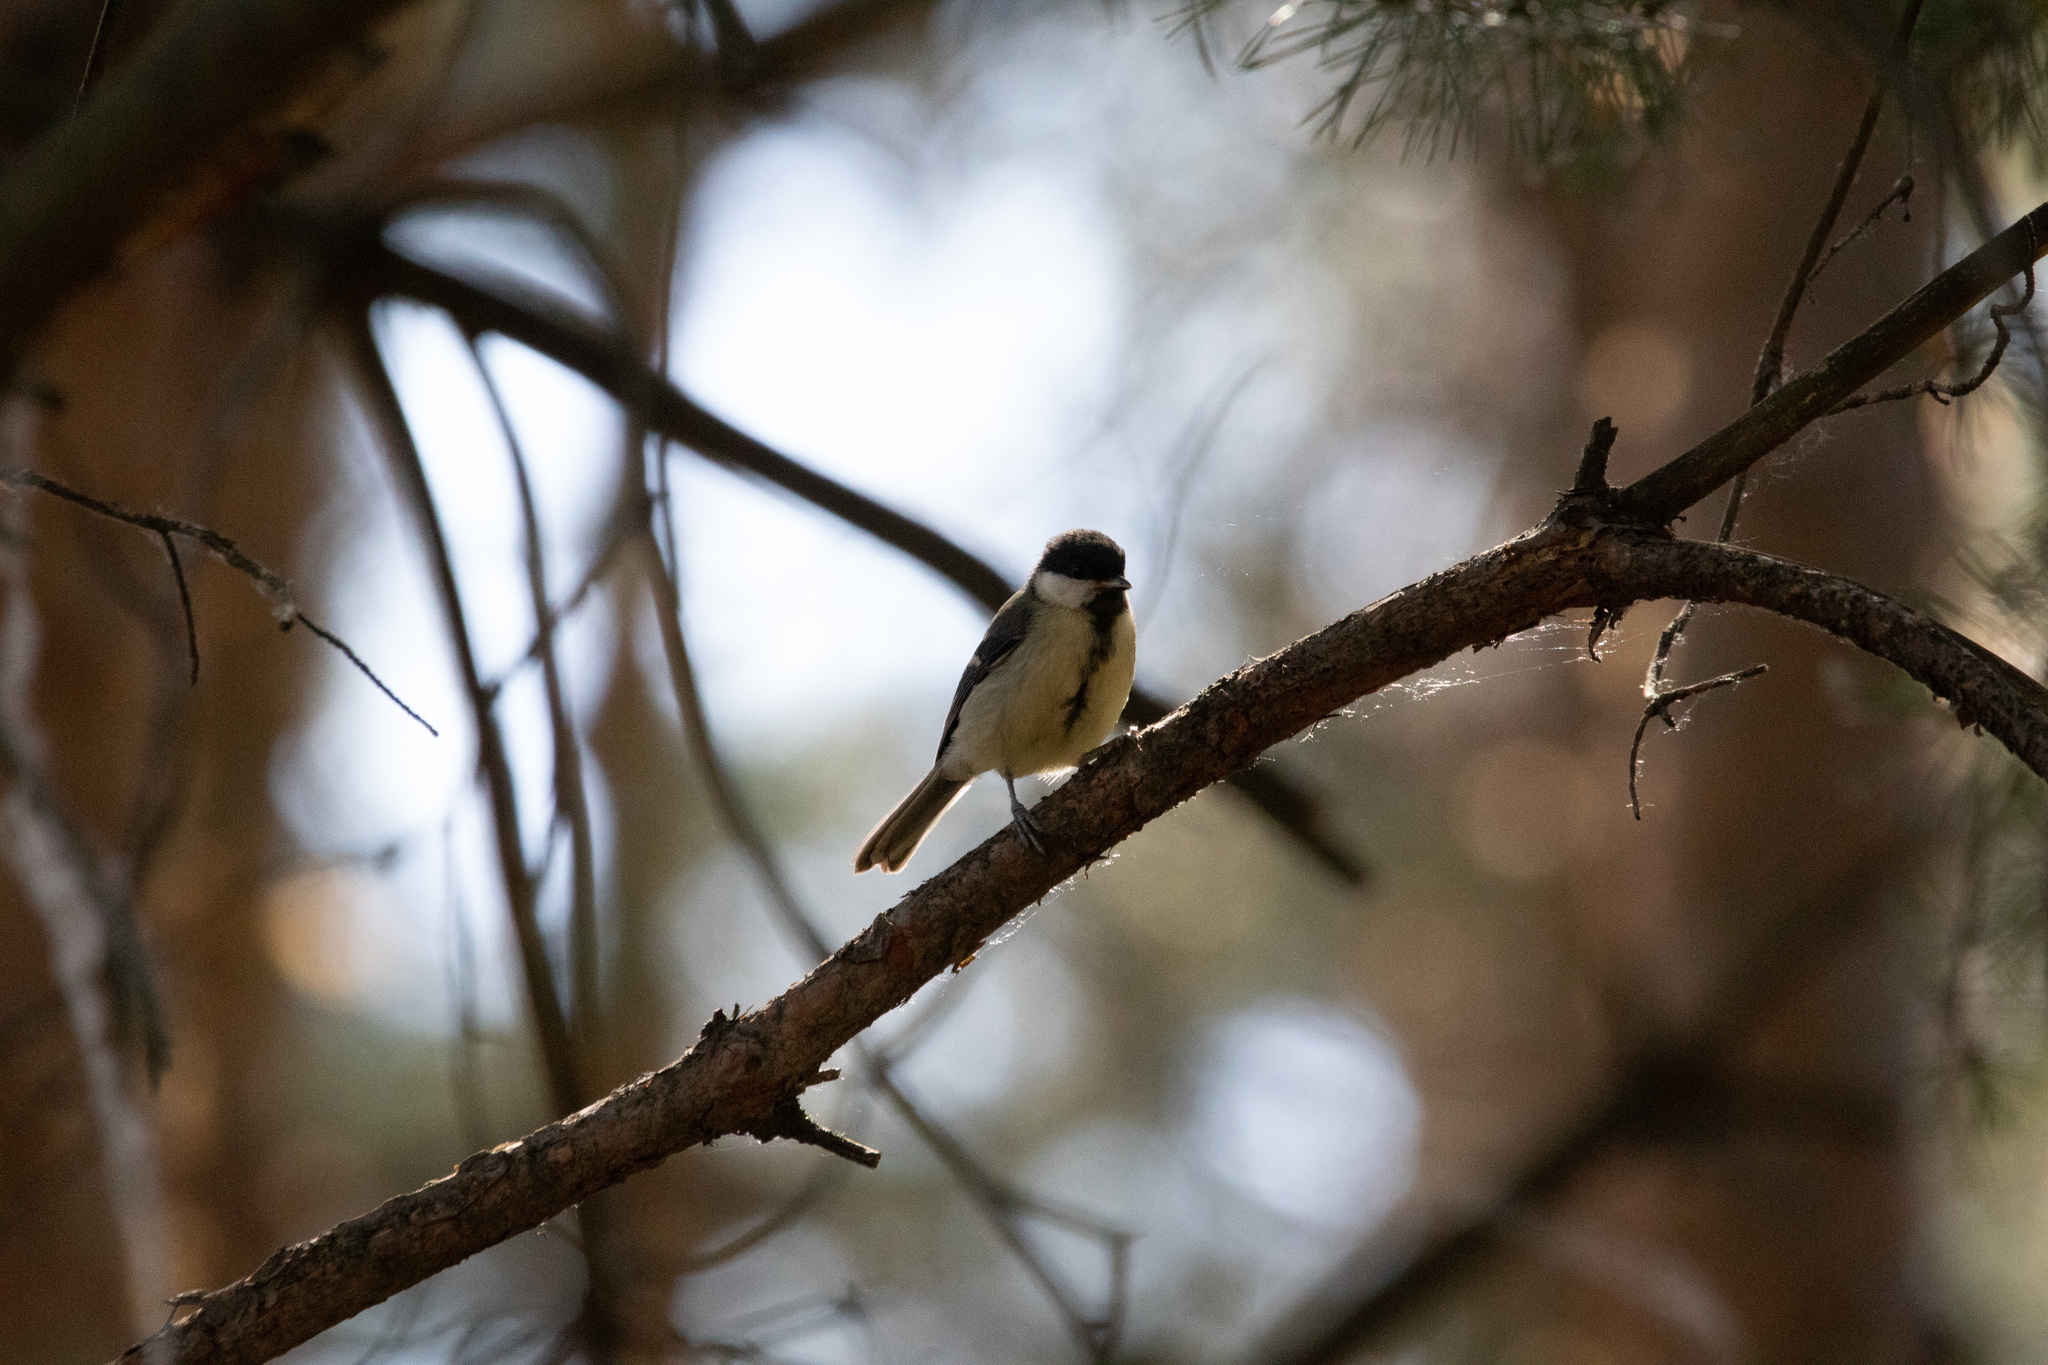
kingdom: Animalia
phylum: Chordata
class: Aves
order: Passeriformes
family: Paridae
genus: Parus
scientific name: Parus major
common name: Great tit
